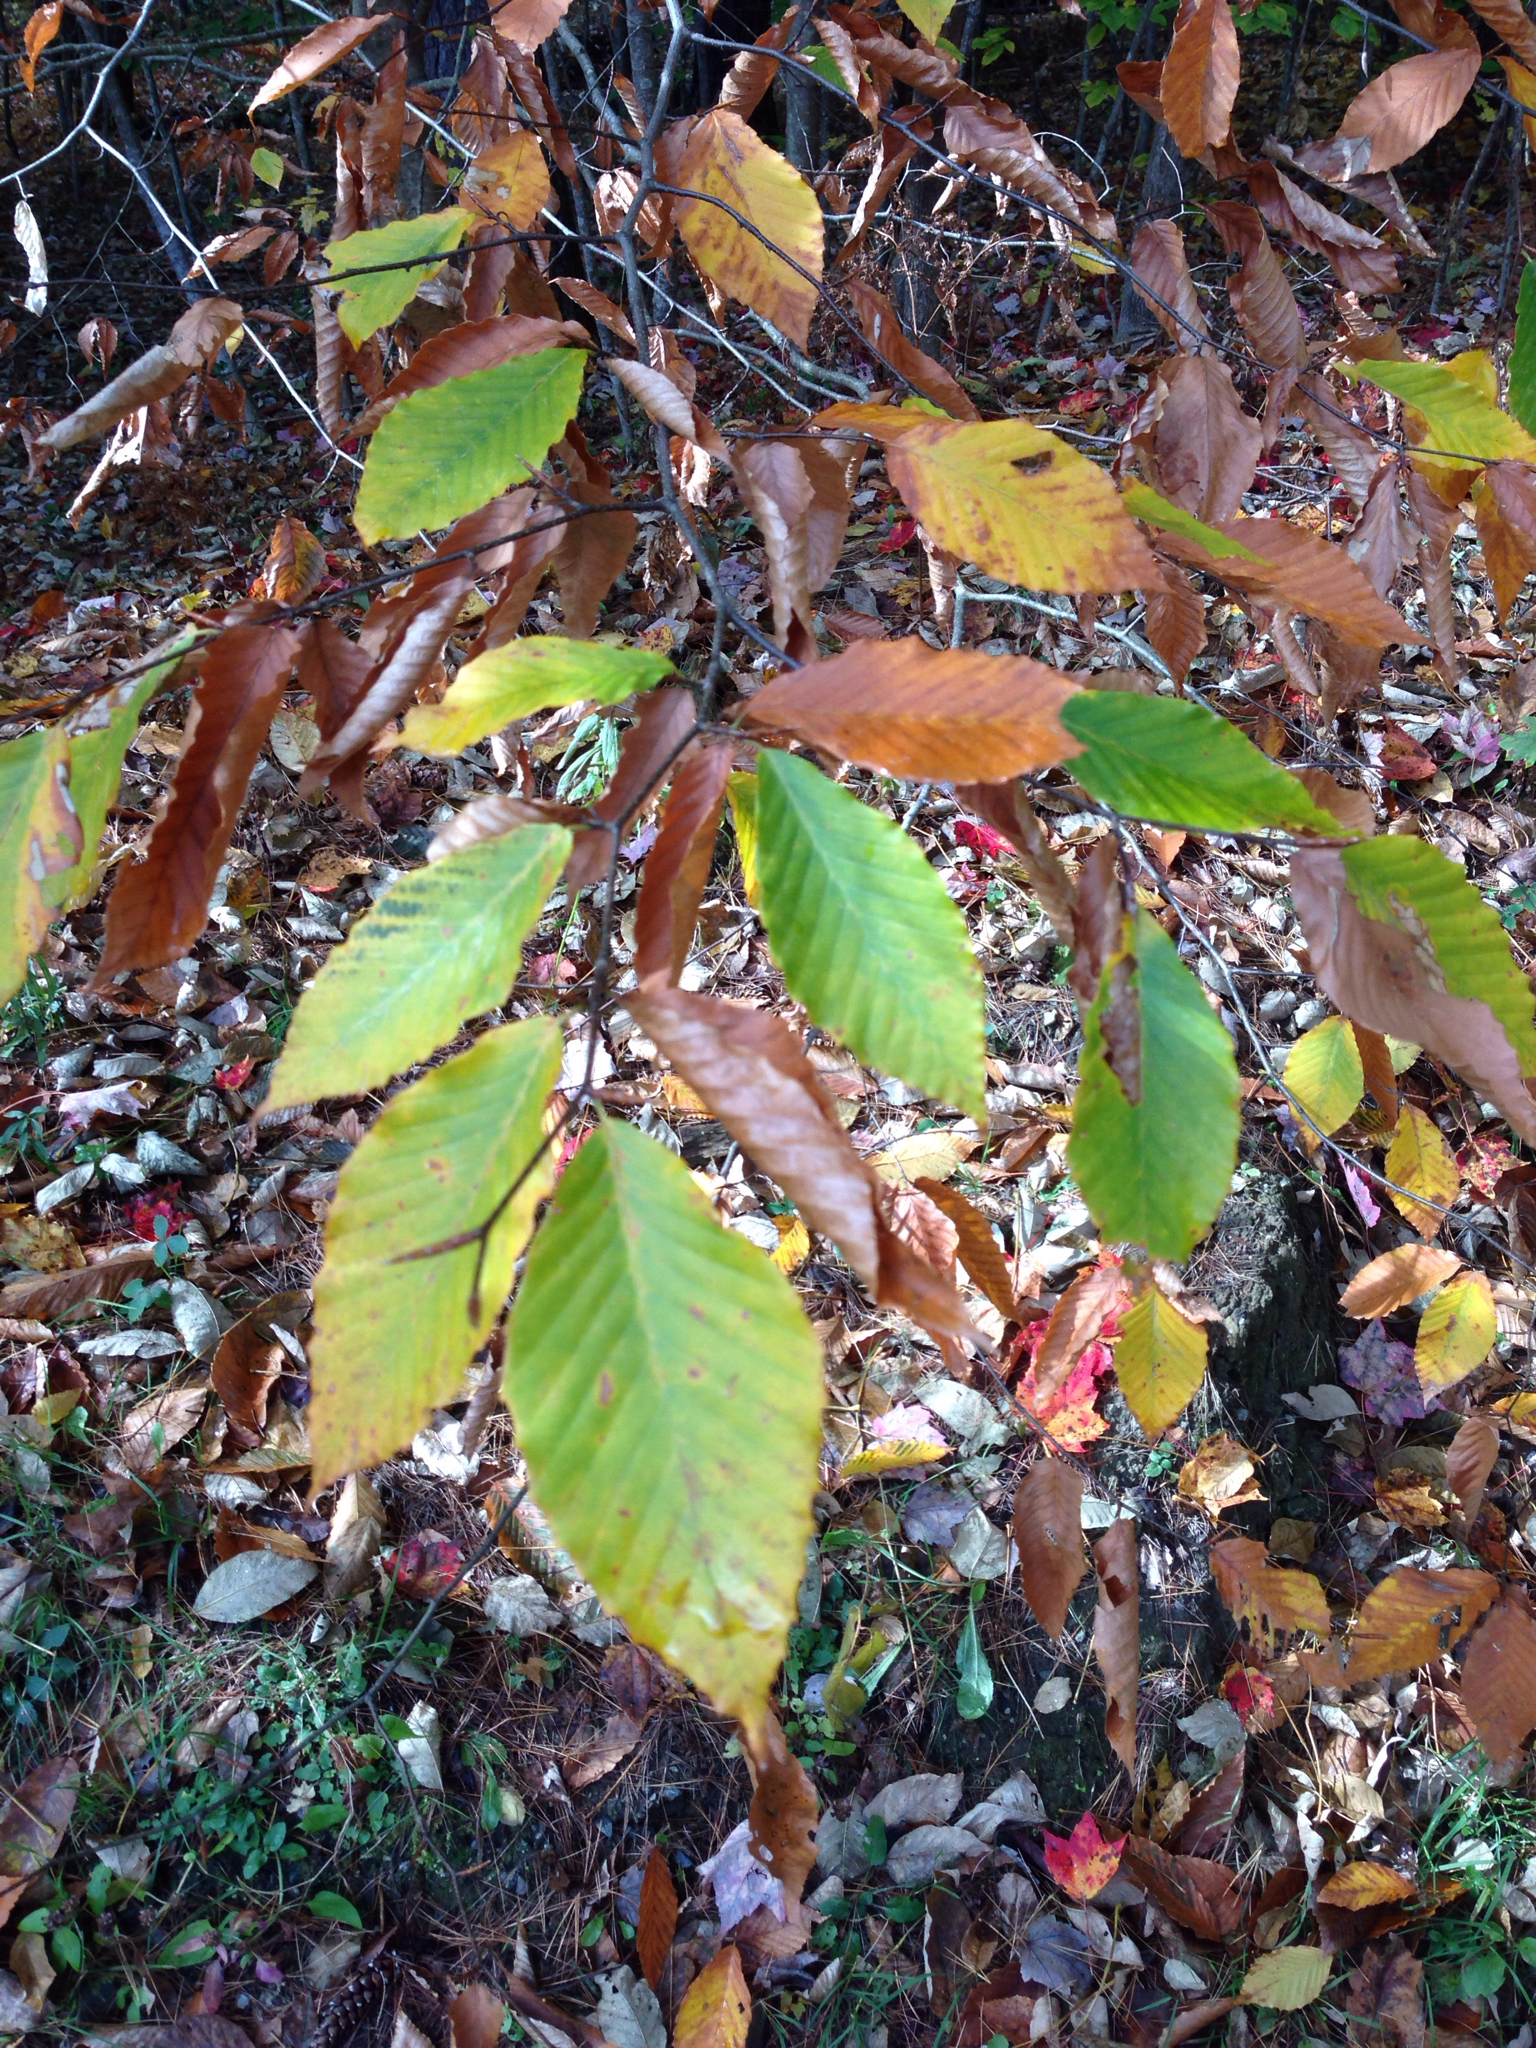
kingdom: Plantae
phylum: Tracheophyta
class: Magnoliopsida
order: Fagales
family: Fagaceae
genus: Fagus
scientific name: Fagus grandifolia
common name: American beech
